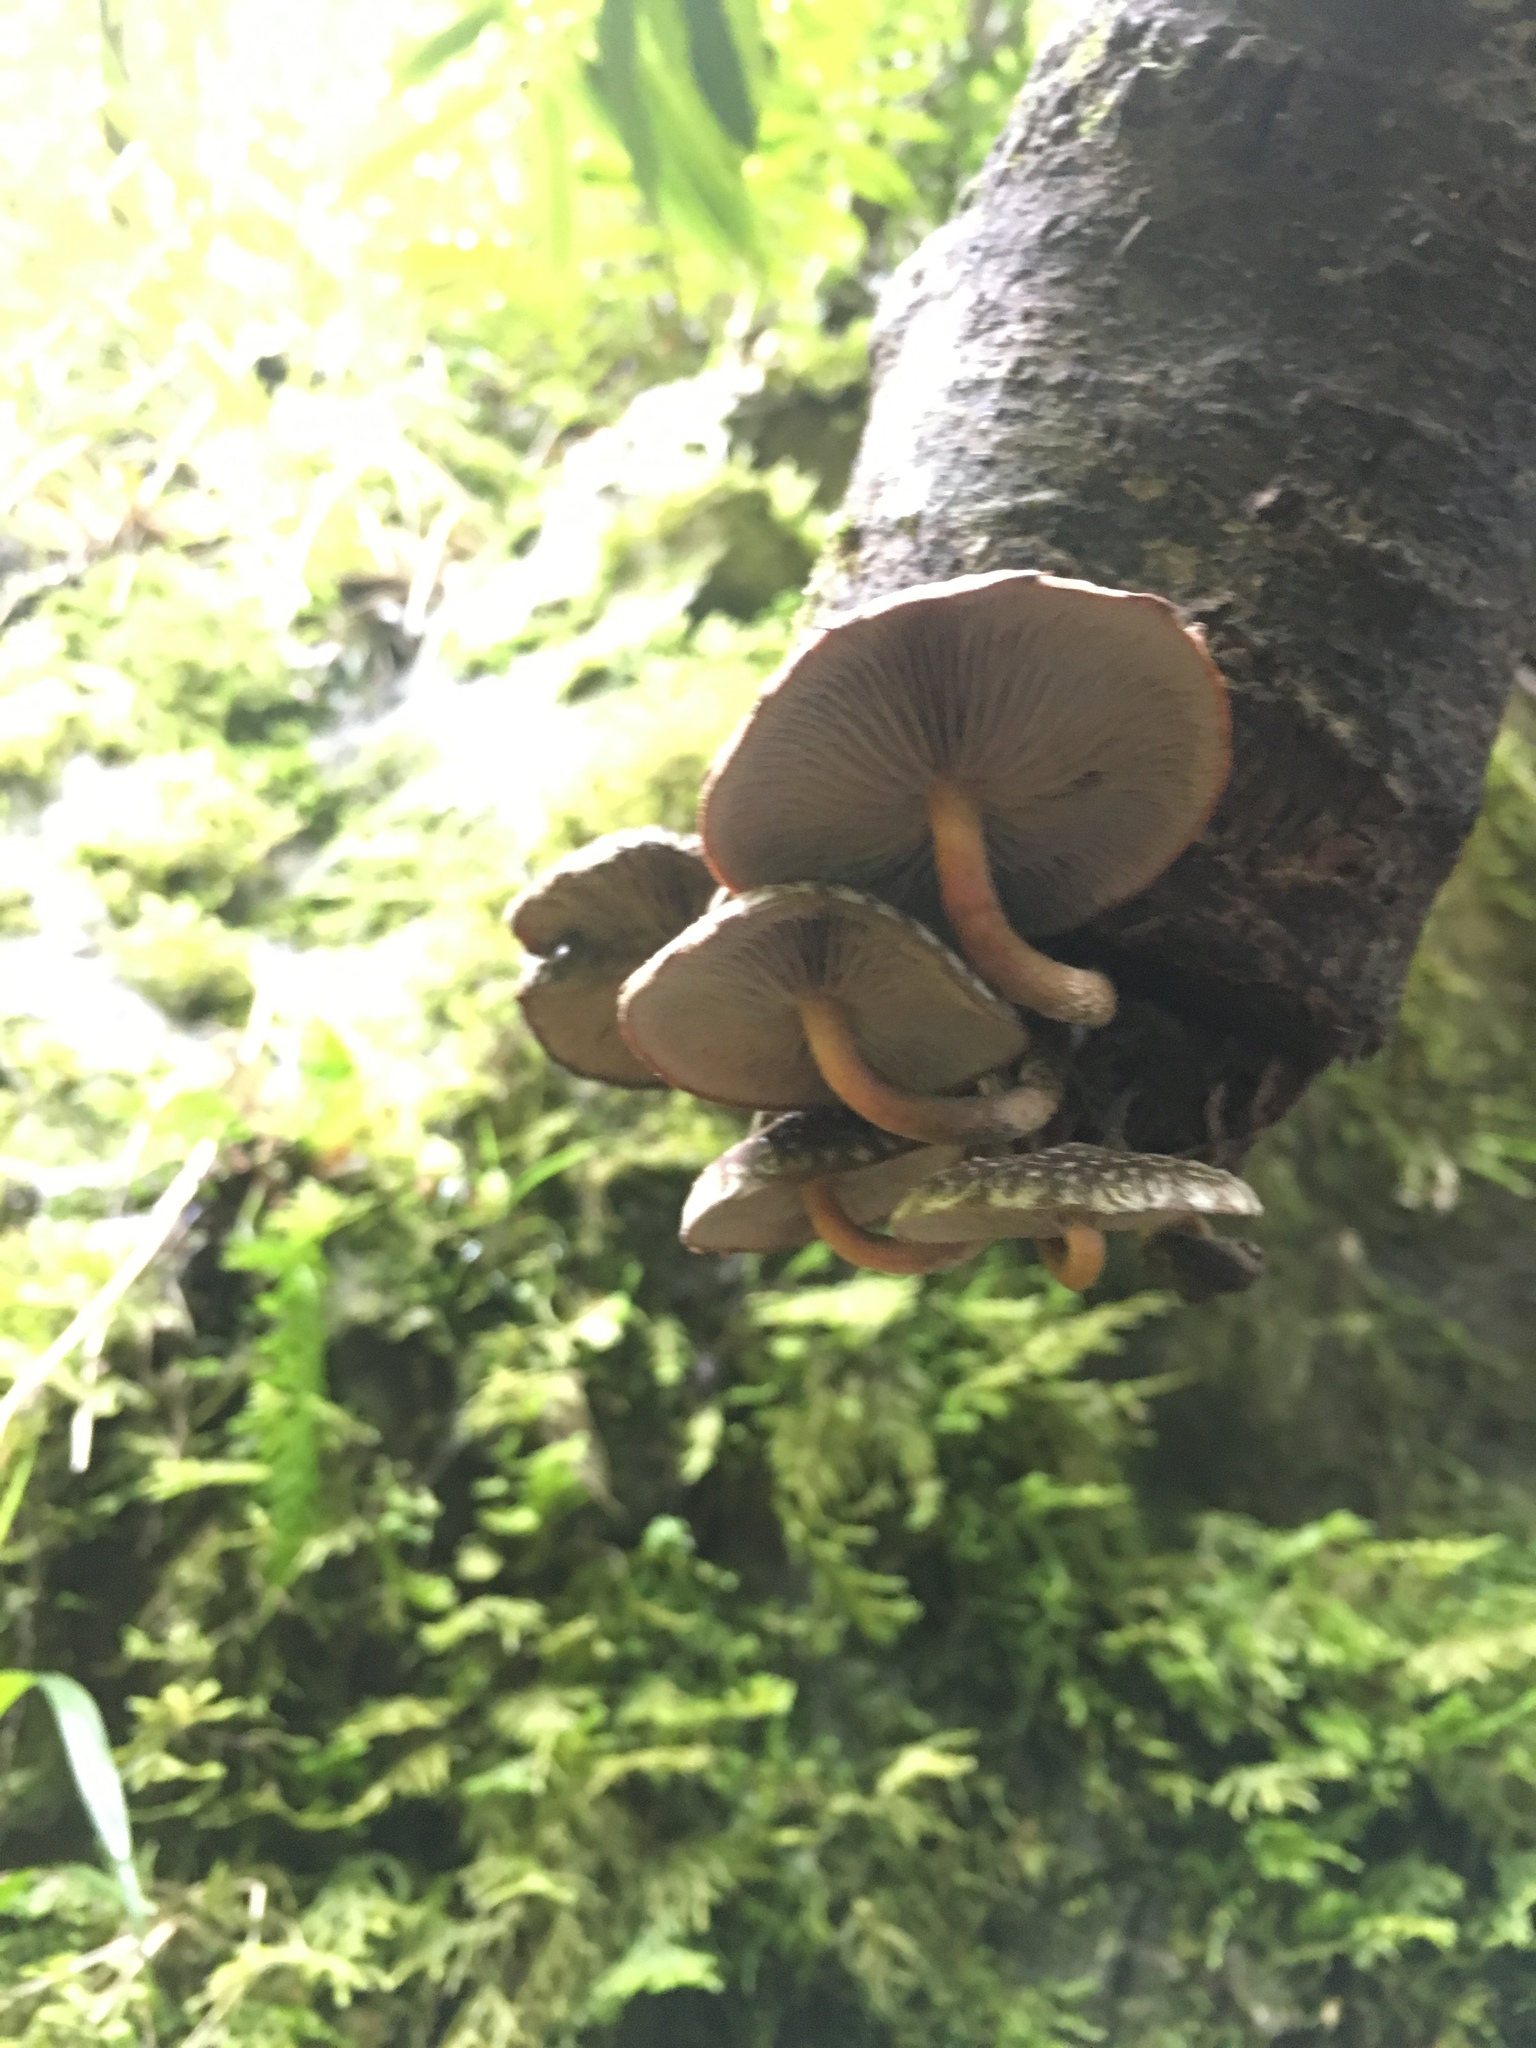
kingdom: Fungi
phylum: Basidiomycota
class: Agaricomycetes
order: Agaricales
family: Omphalotaceae
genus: Lentinula
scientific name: Lentinula novae-zelandiae
